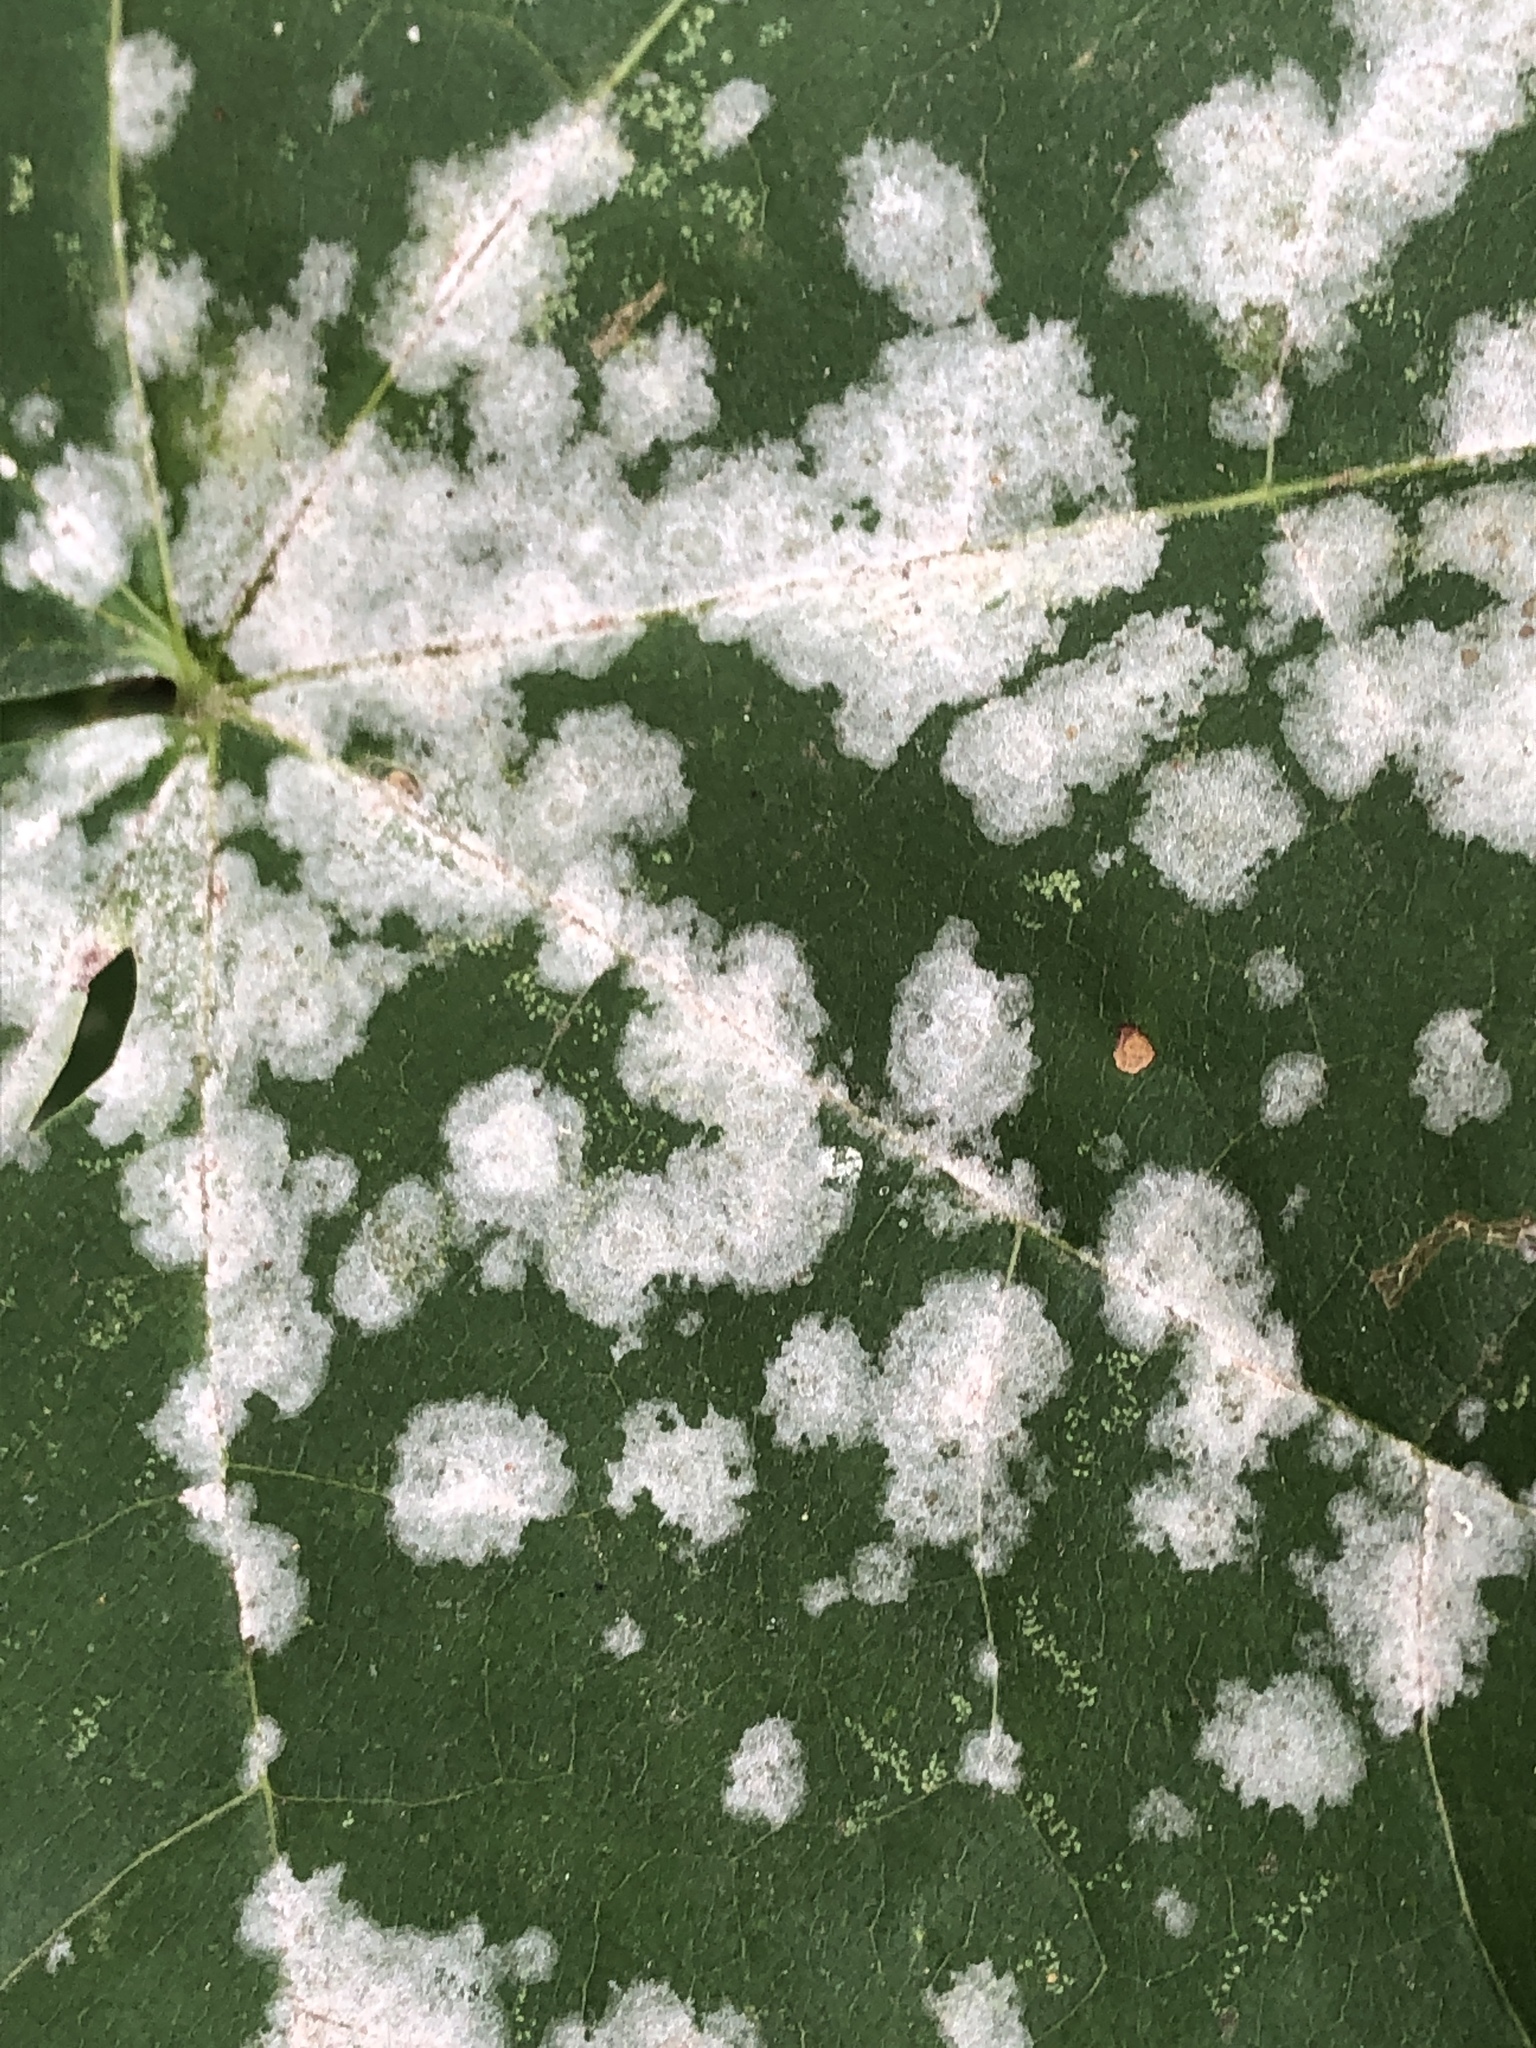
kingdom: Fungi
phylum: Ascomycota
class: Leotiomycetes
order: Helotiales
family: Erysiphaceae
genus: Sawadaea
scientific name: Sawadaea tulasnei
